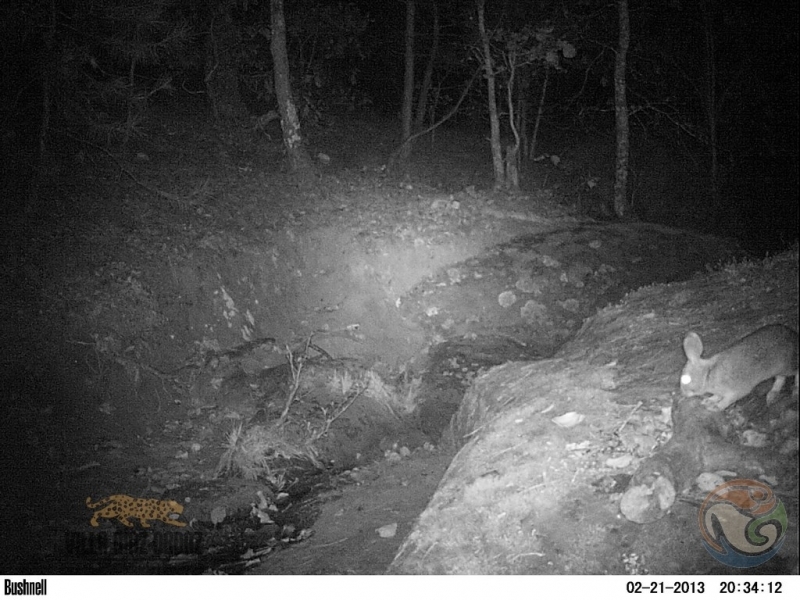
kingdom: Animalia
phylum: Chordata
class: Mammalia
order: Lagomorpha
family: Leporidae
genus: Sylvilagus
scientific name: Sylvilagus floridanus
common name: Eastern cottontail
